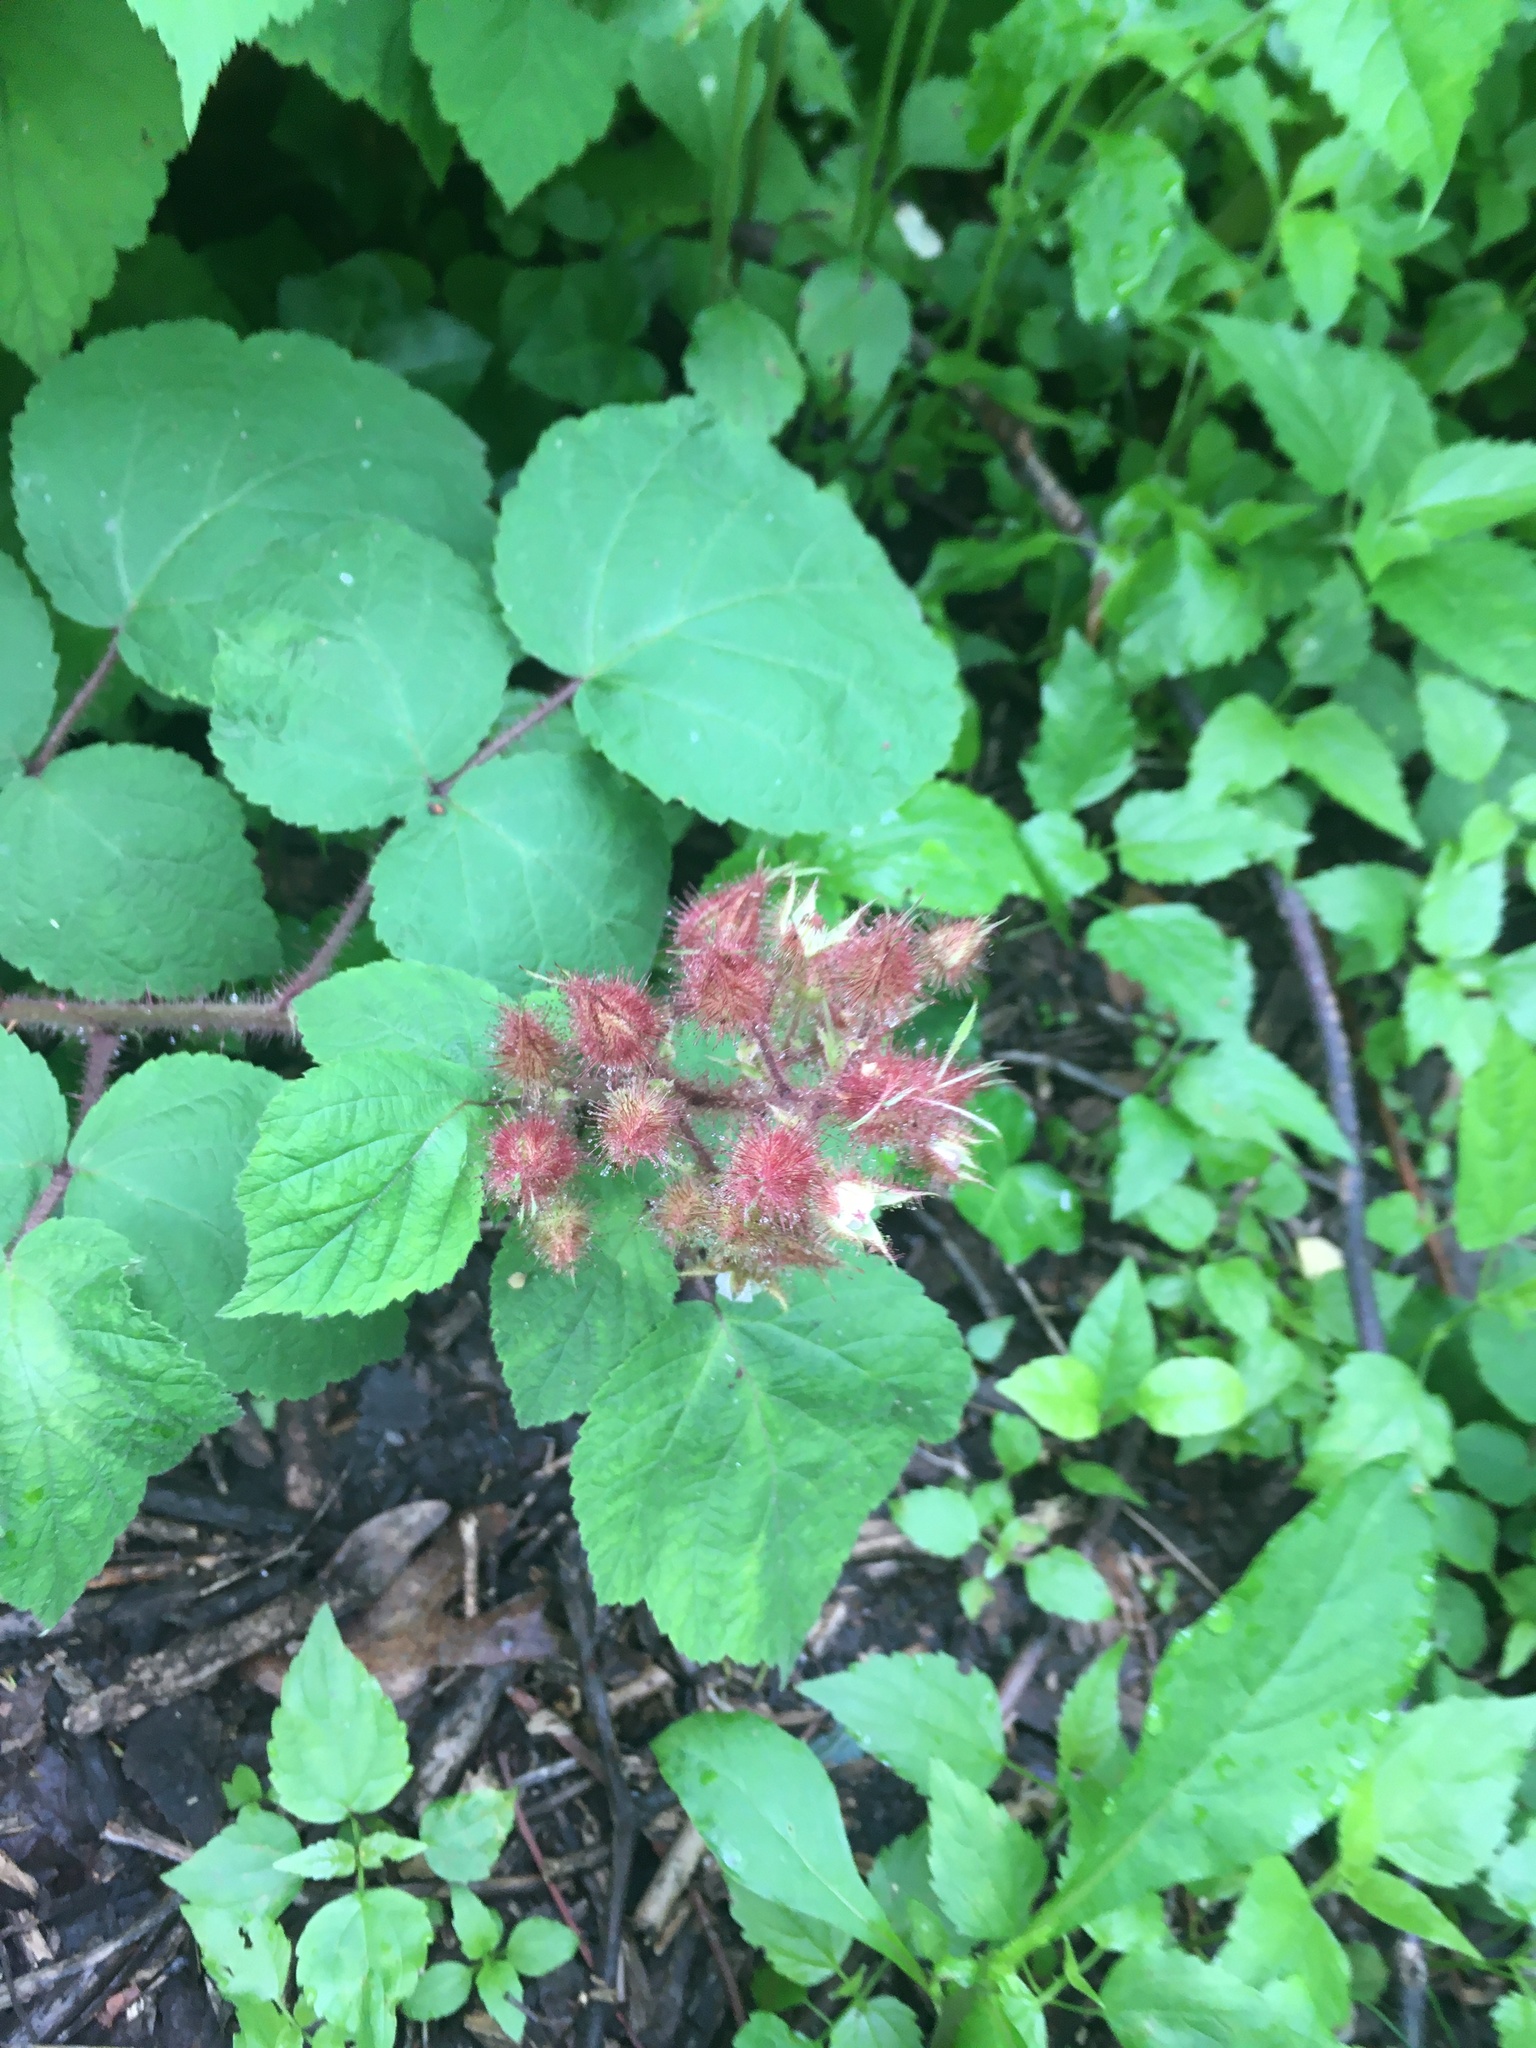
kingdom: Plantae
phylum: Tracheophyta
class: Magnoliopsida
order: Rosales
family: Rosaceae
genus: Rubus
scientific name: Rubus phoenicolasius
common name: Japanese wineberry
